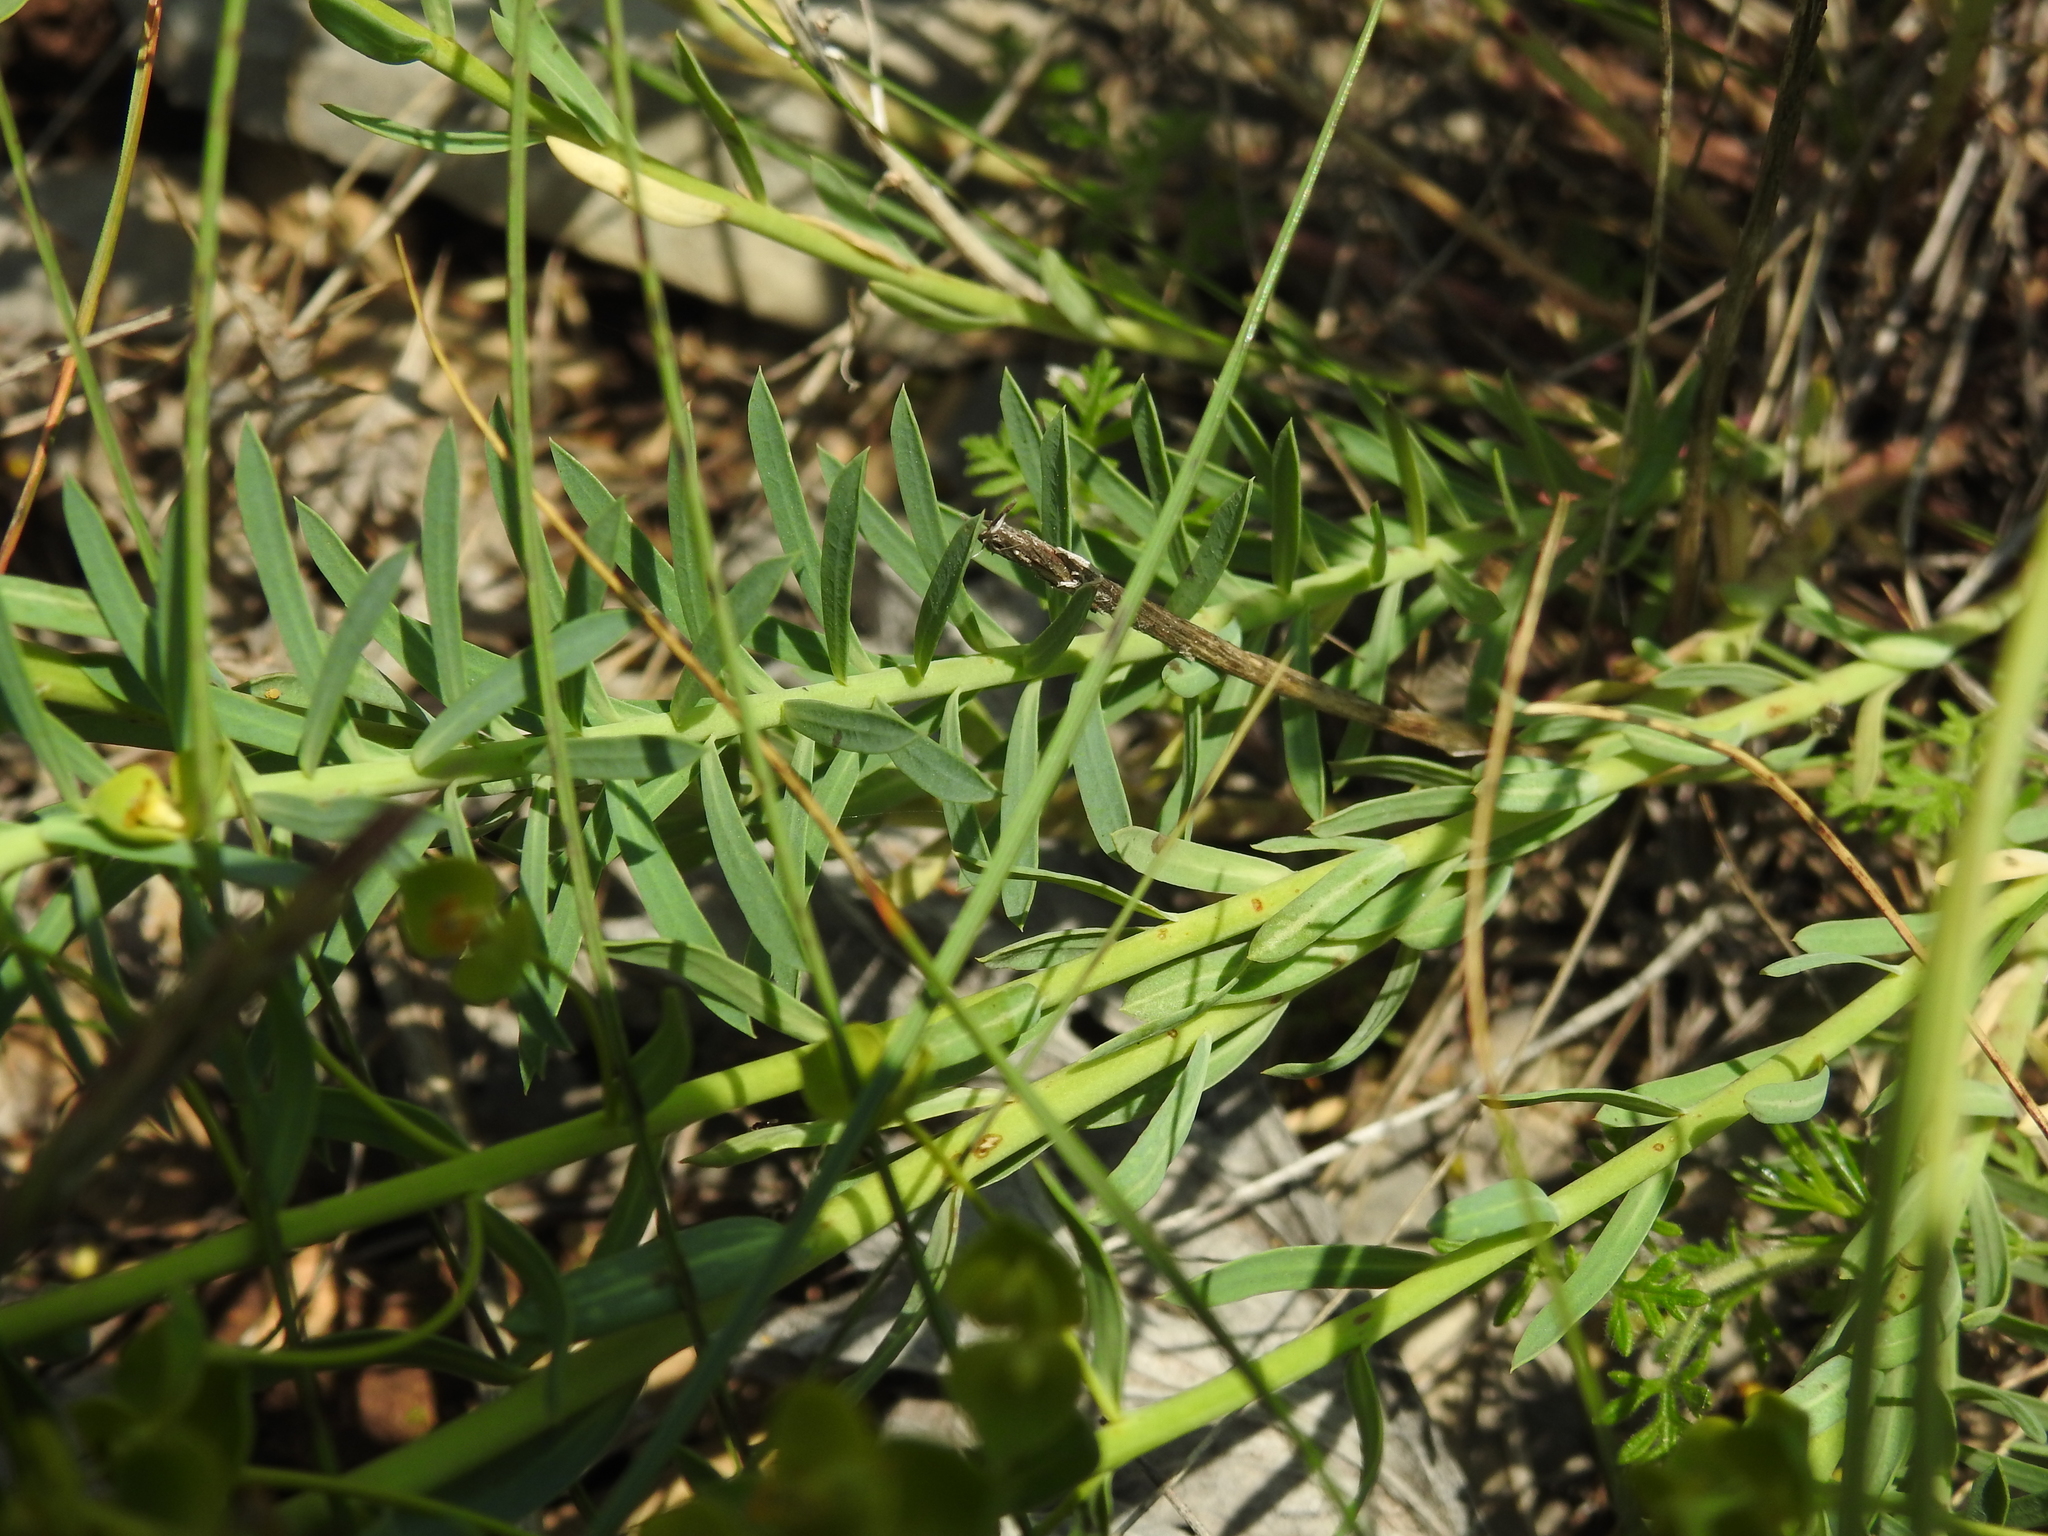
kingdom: Plantae
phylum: Tracheophyta
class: Magnoliopsida
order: Malpighiales
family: Euphorbiaceae
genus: Euphorbia
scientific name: Euphorbia seguieriana
